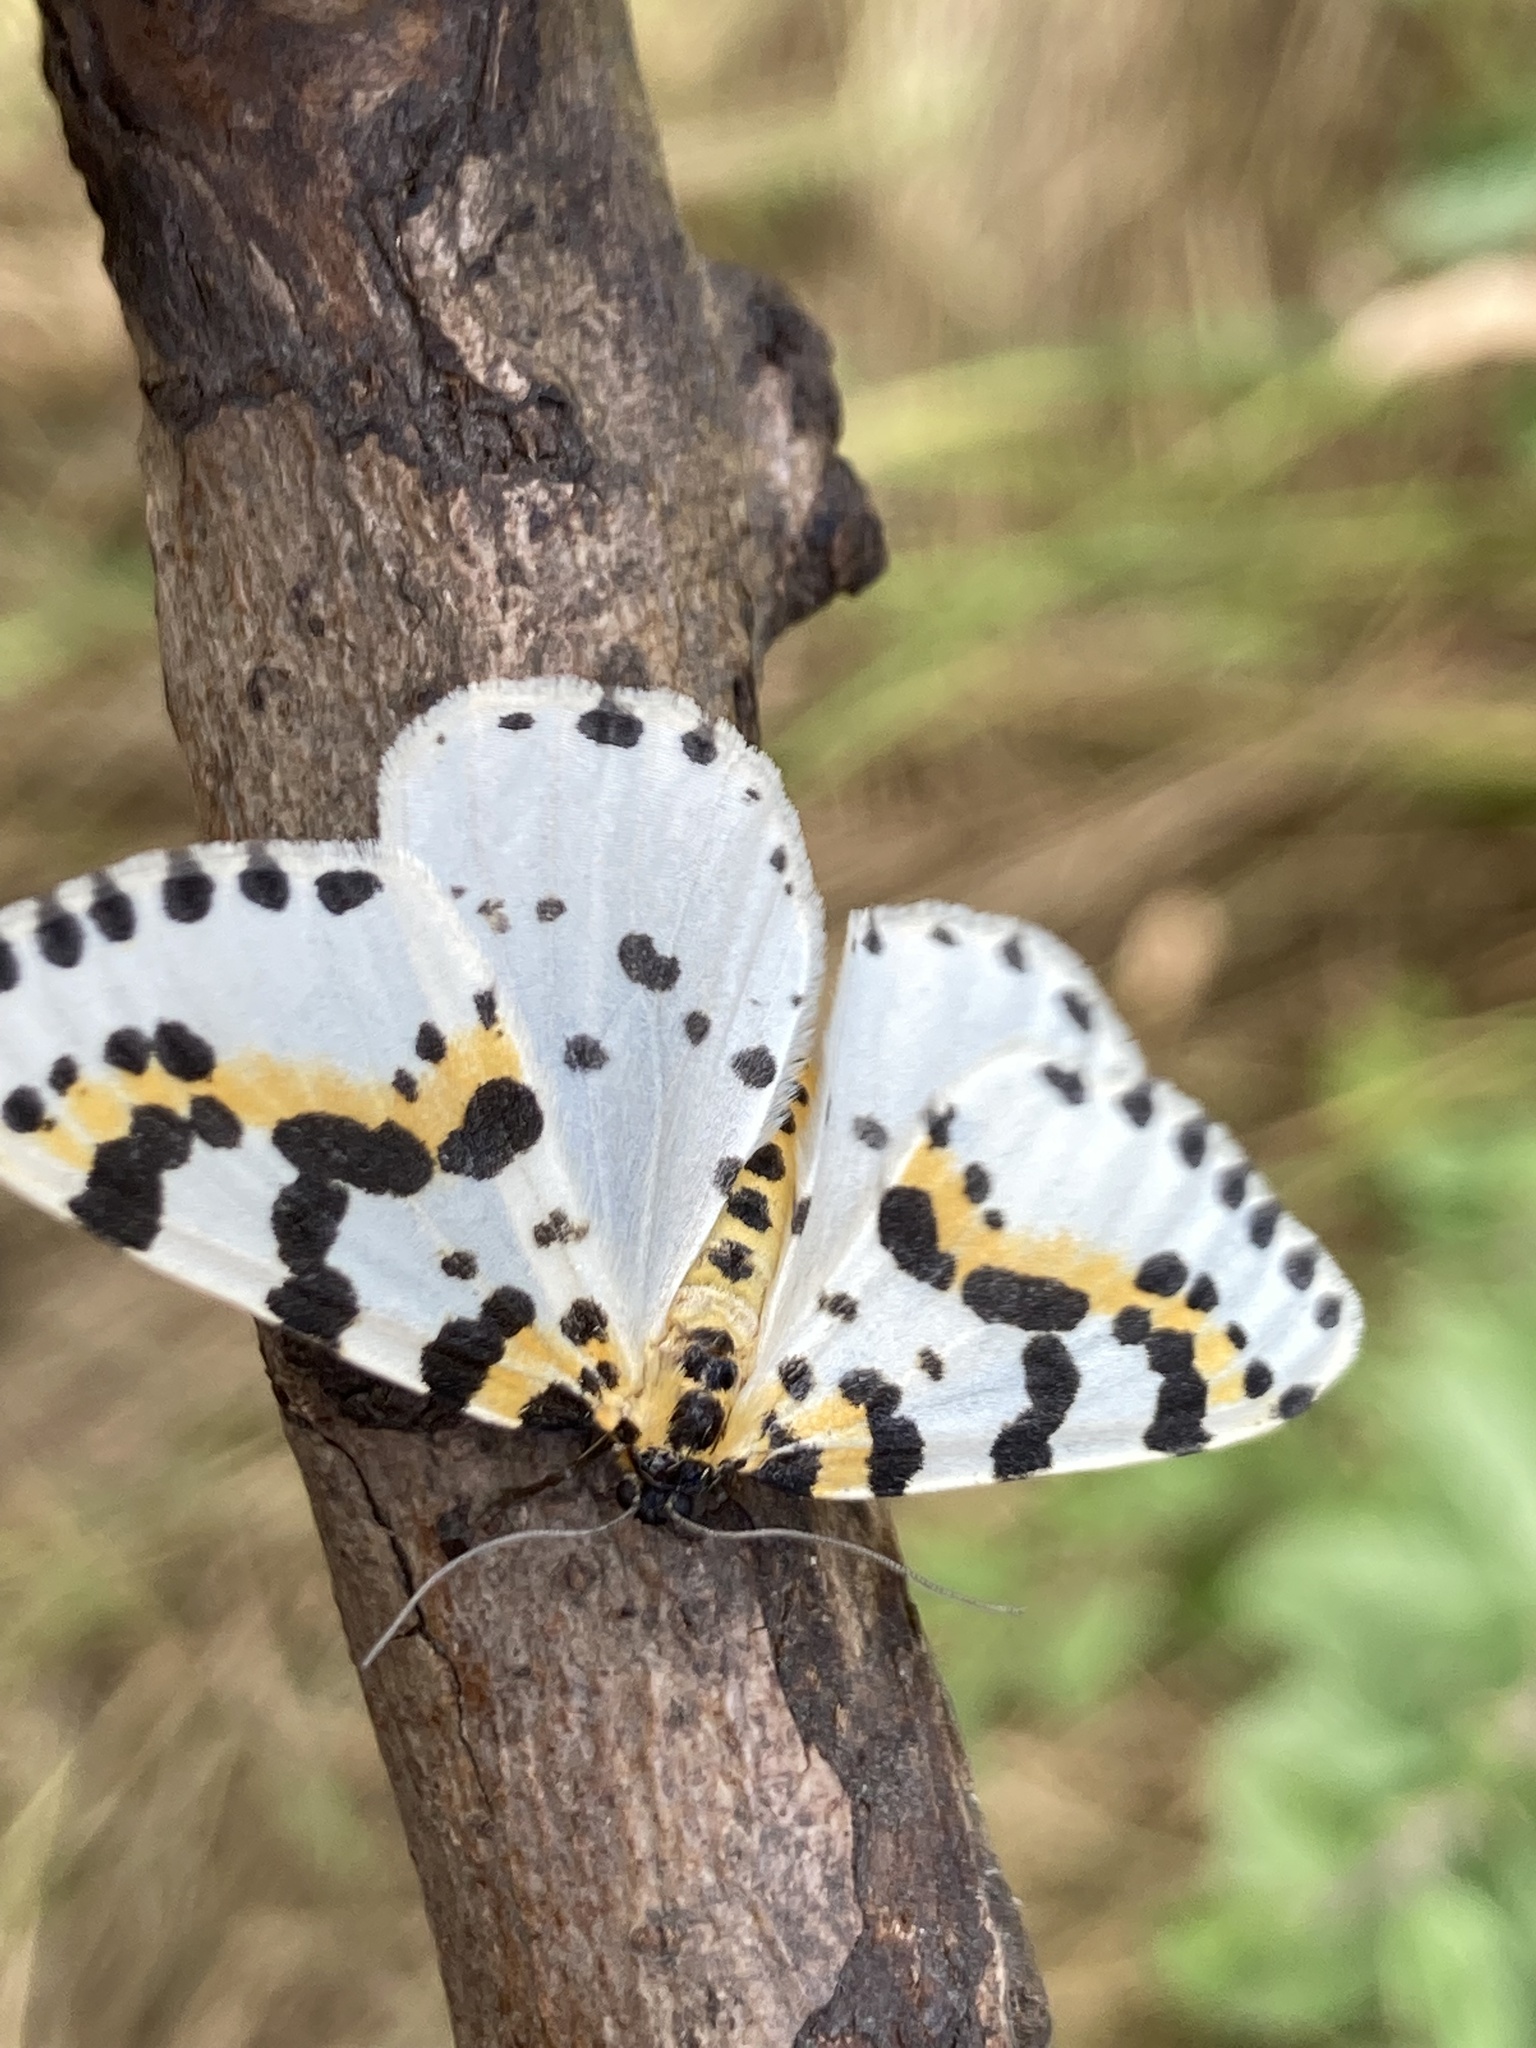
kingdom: Animalia
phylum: Arthropoda
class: Insecta
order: Lepidoptera
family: Geometridae
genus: Abraxas
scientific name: Abraxas grossulariata
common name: Magpie
